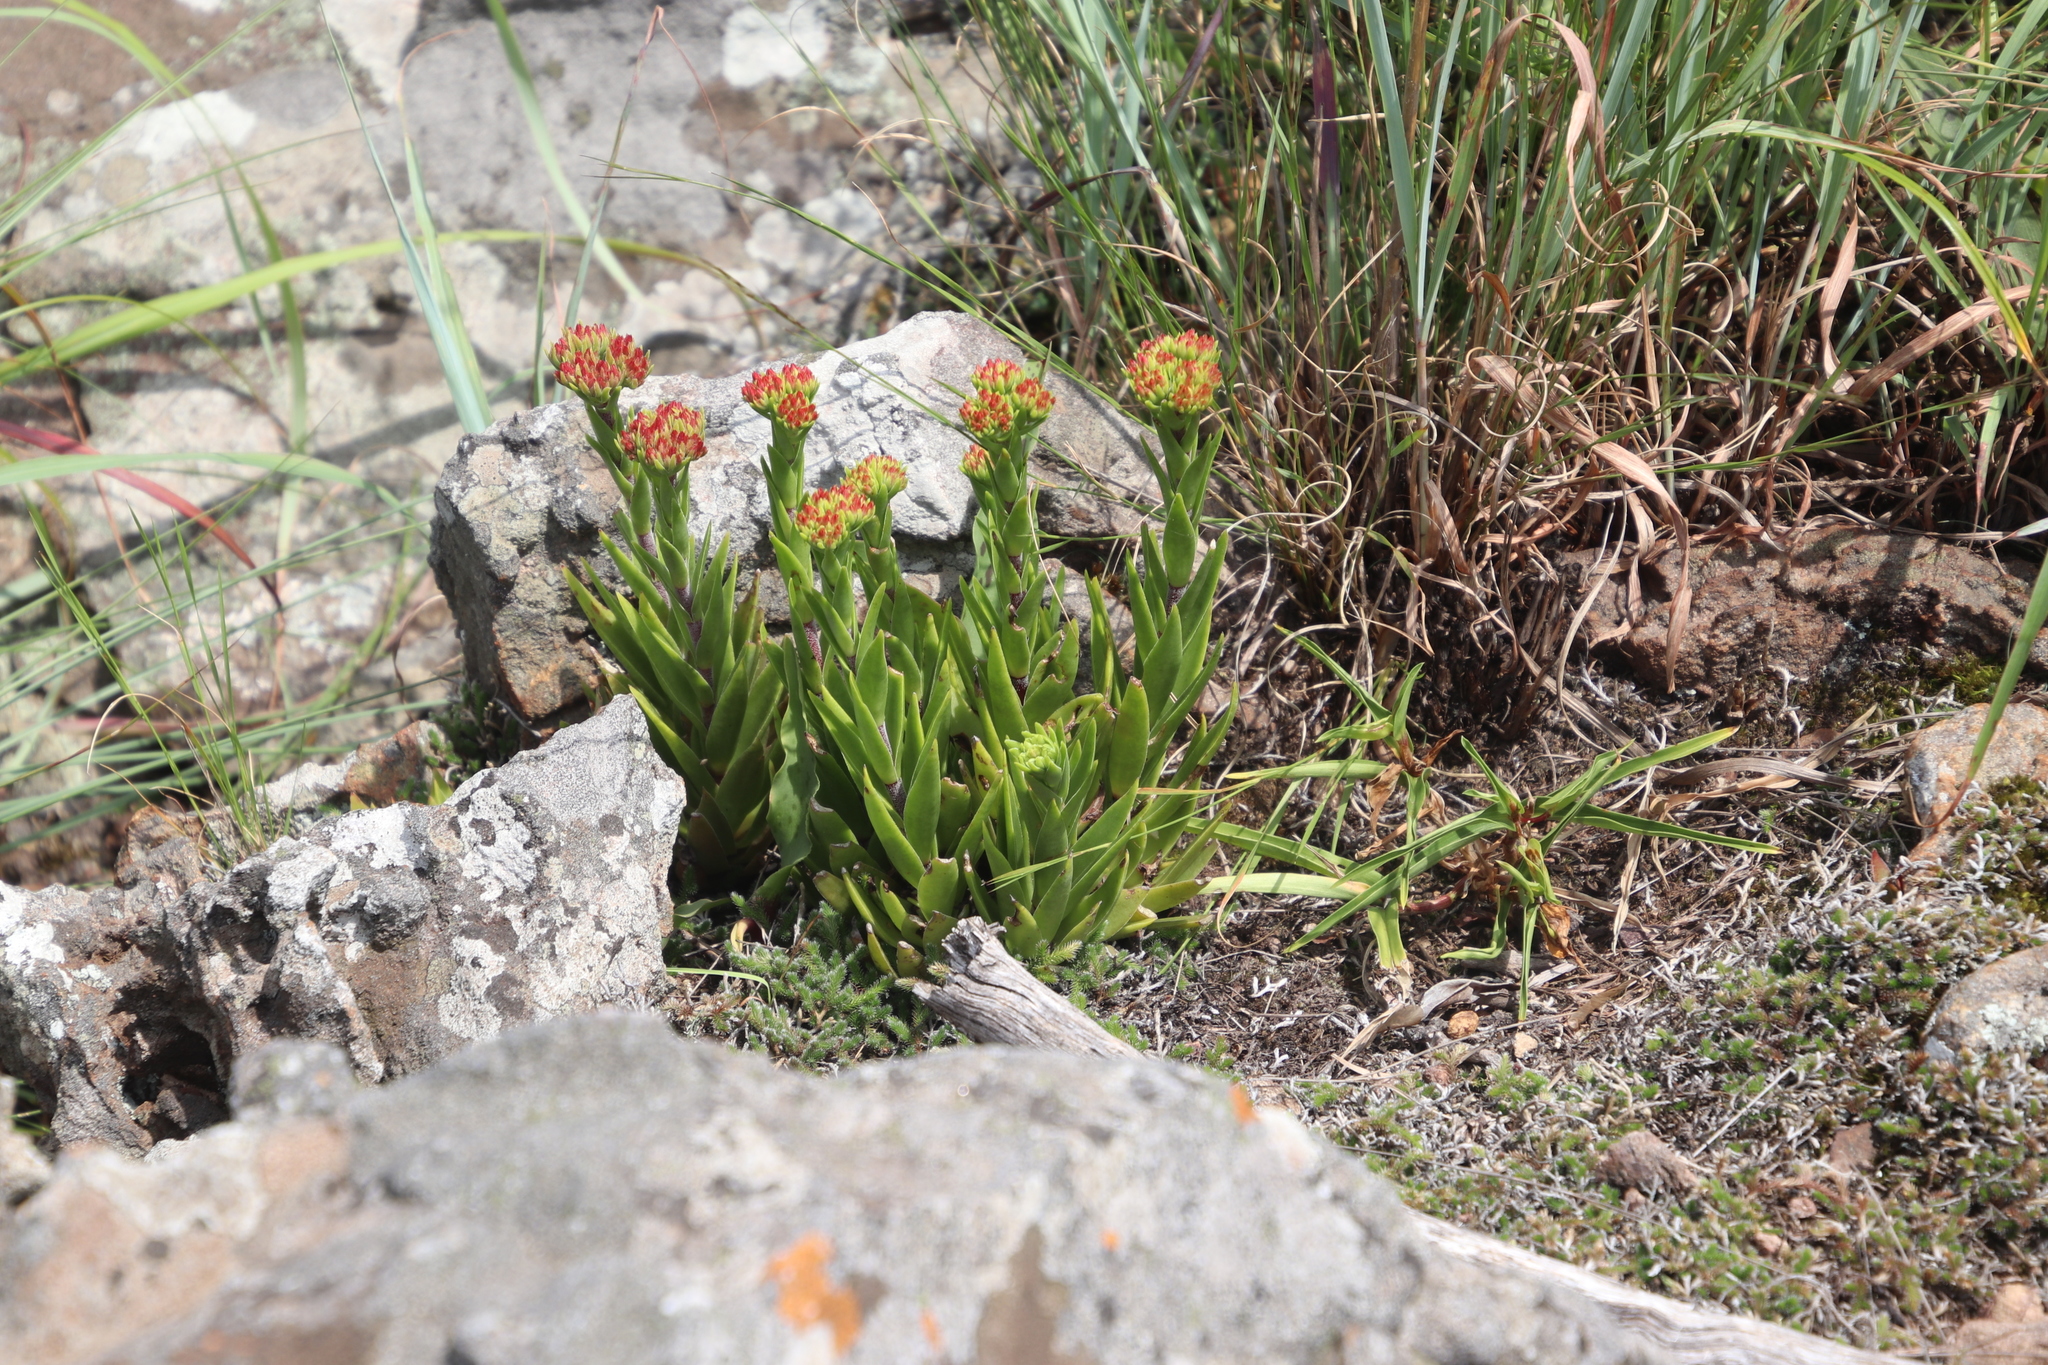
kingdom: Plantae
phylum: Tracheophyta
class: Magnoliopsida
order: Saxifragales
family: Crassulaceae
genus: Crassula
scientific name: Crassula alba
